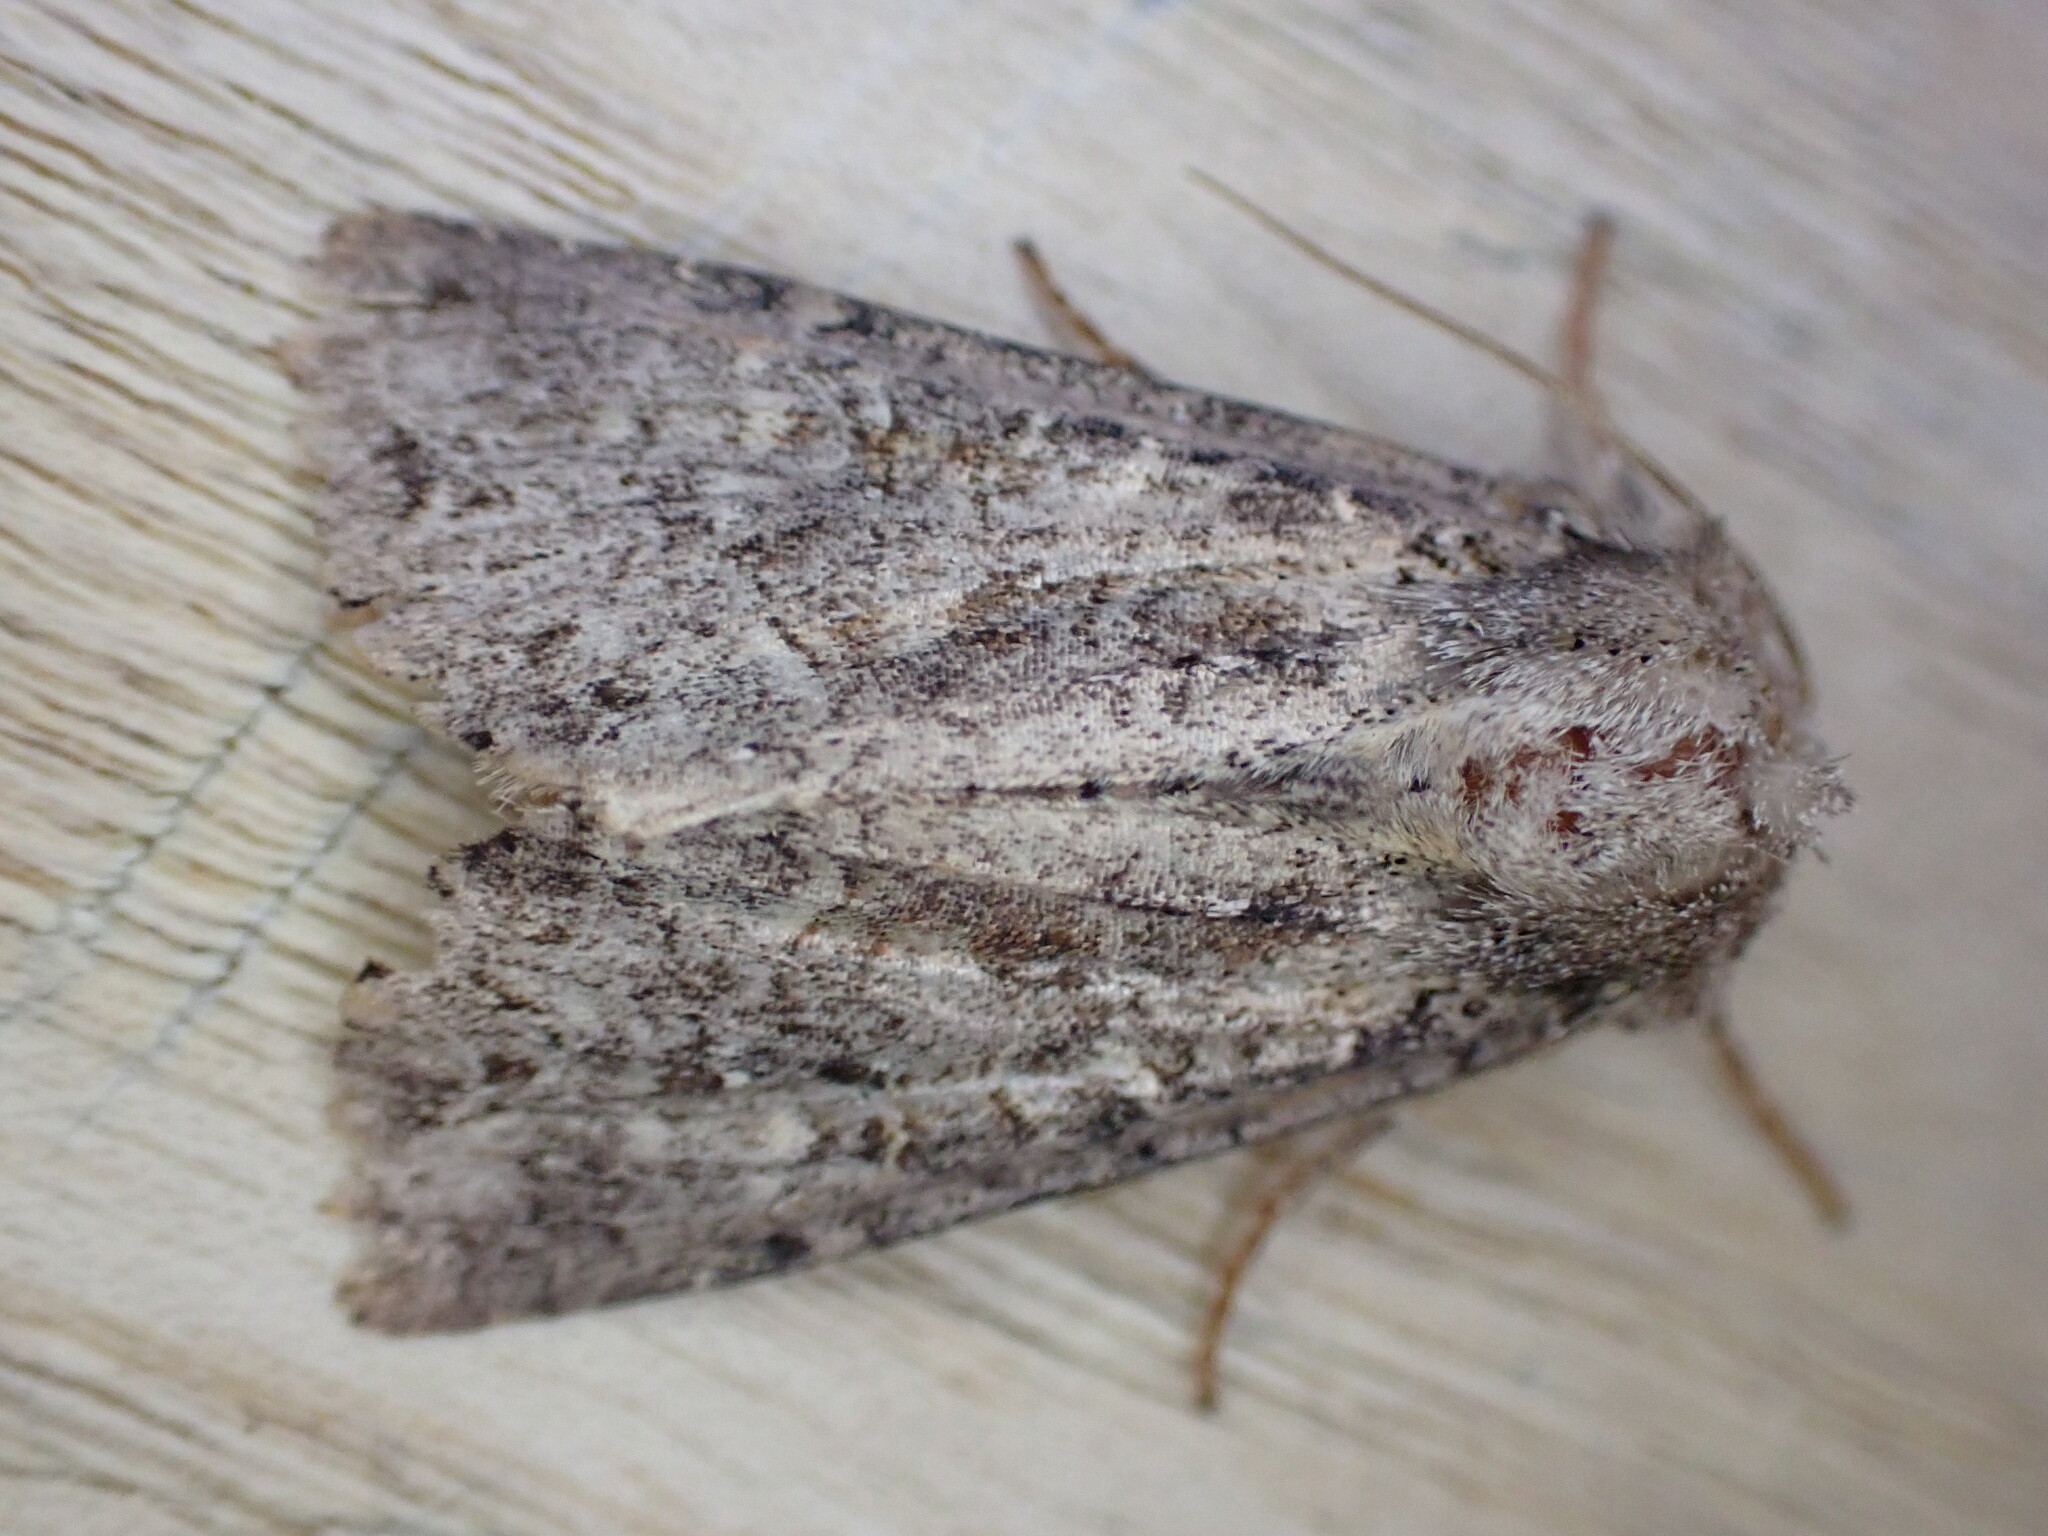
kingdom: Animalia
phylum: Arthropoda
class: Insecta
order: Lepidoptera
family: Noctuidae
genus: Apamea
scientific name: Apamea remissa
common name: Dusky brocade
